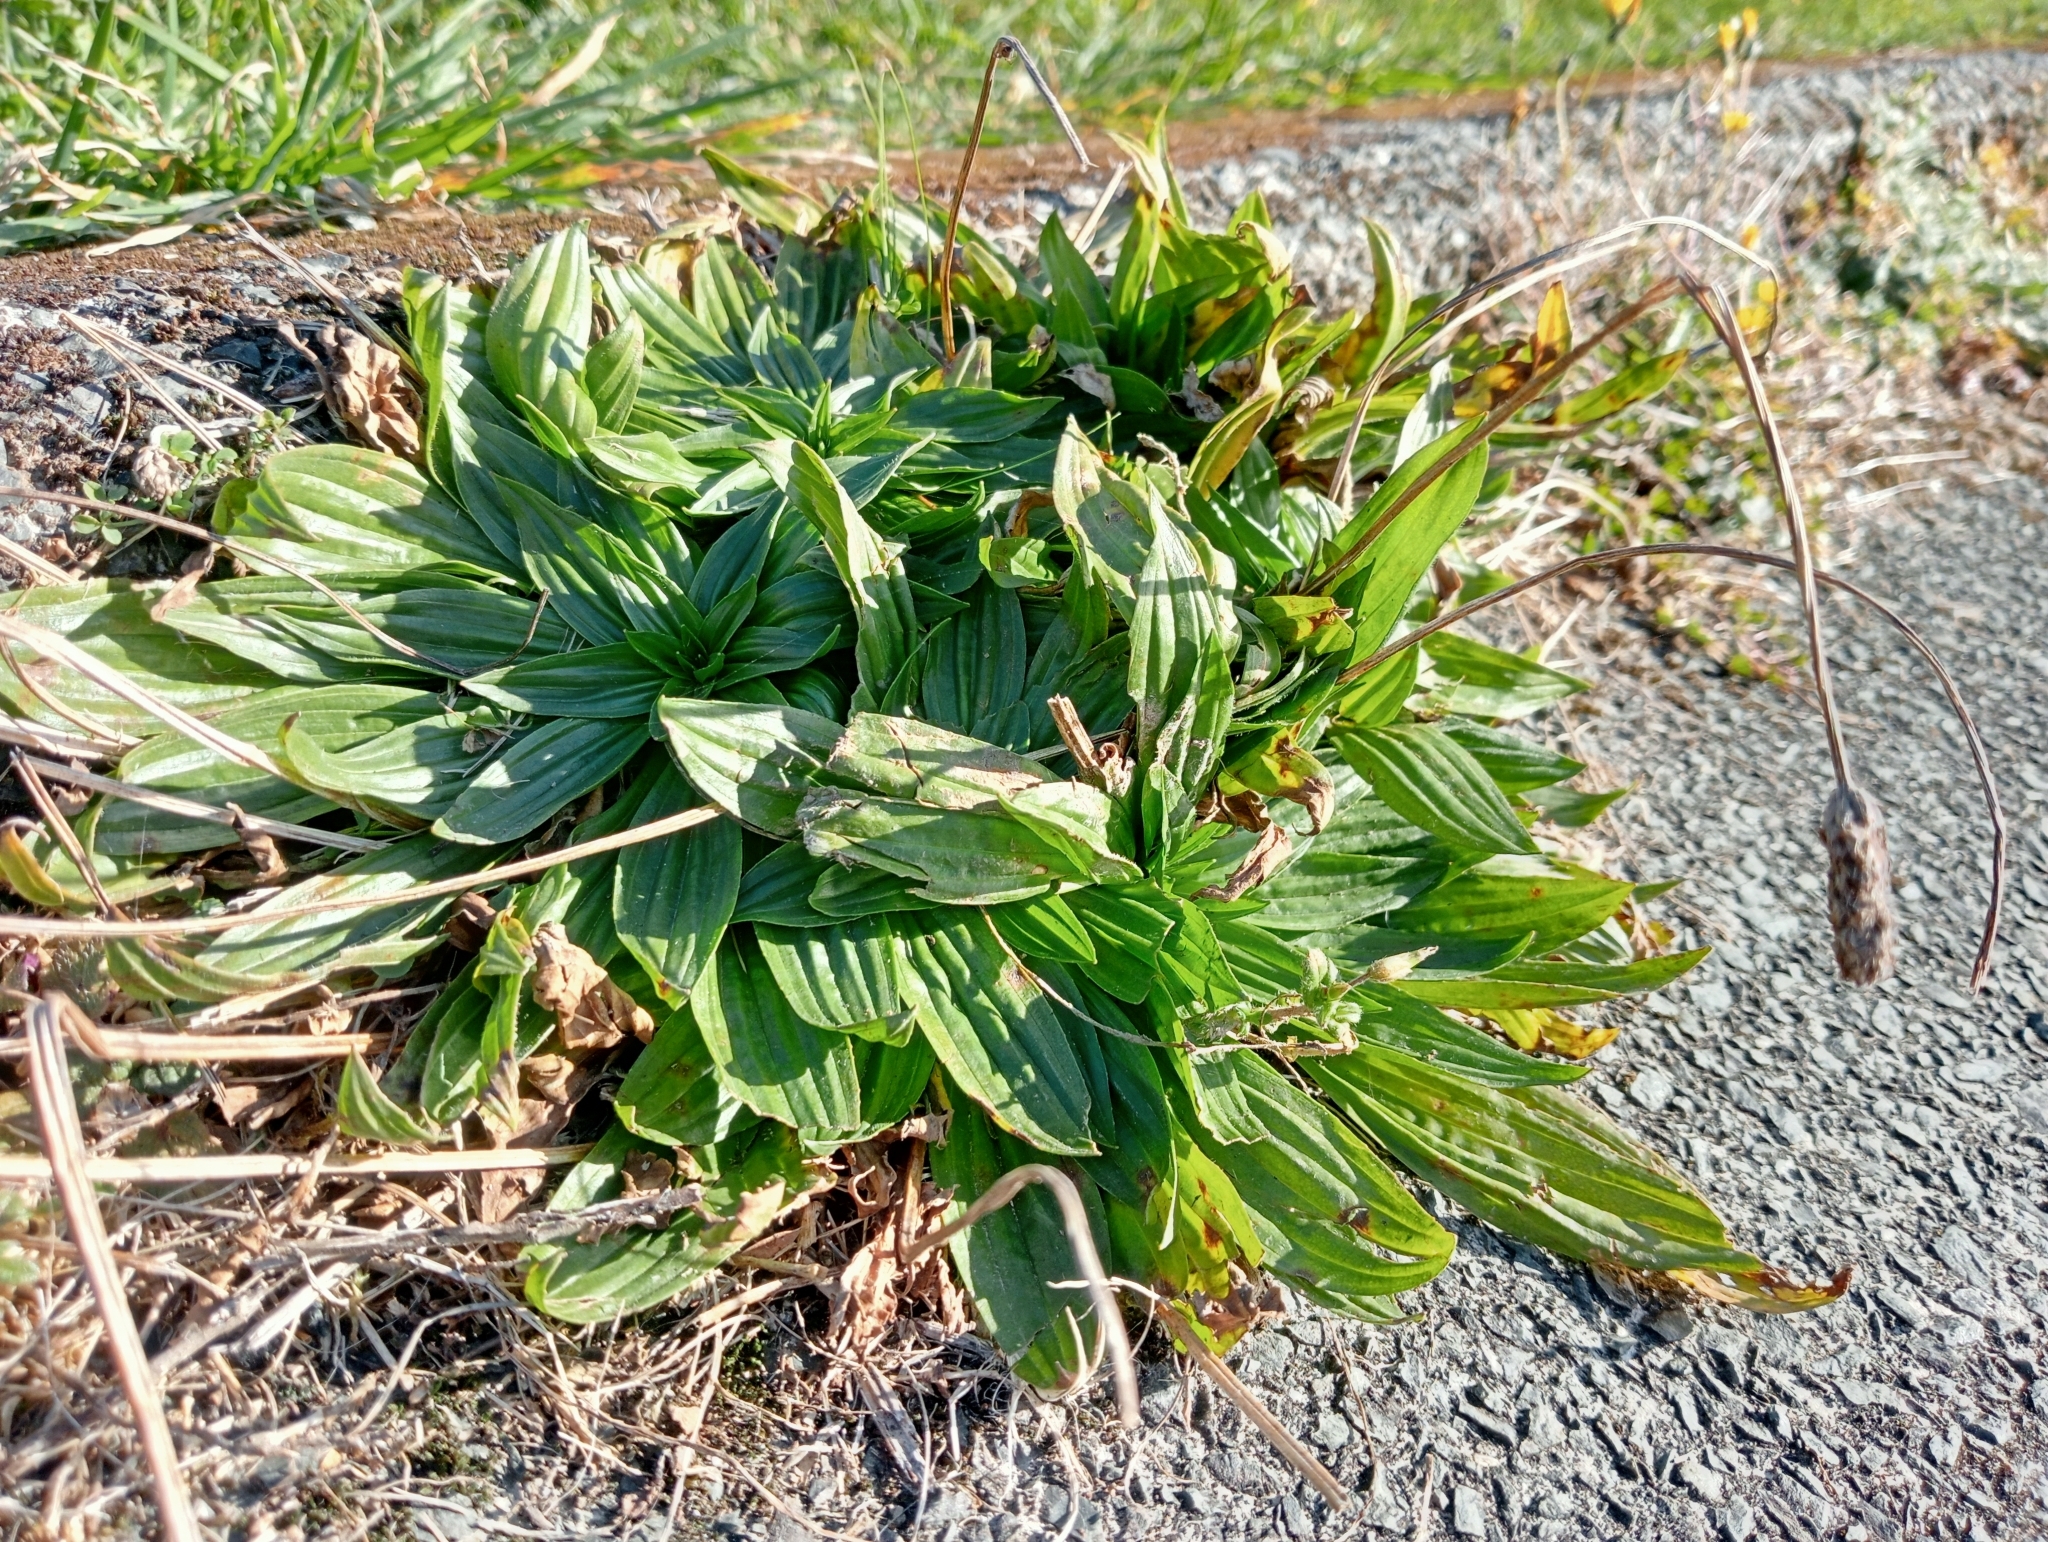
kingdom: Plantae
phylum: Tracheophyta
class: Magnoliopsida
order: Lamiales
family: Plantaginaceae
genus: Plantago
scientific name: Plantago lanceolata
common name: Ribwort plantain
